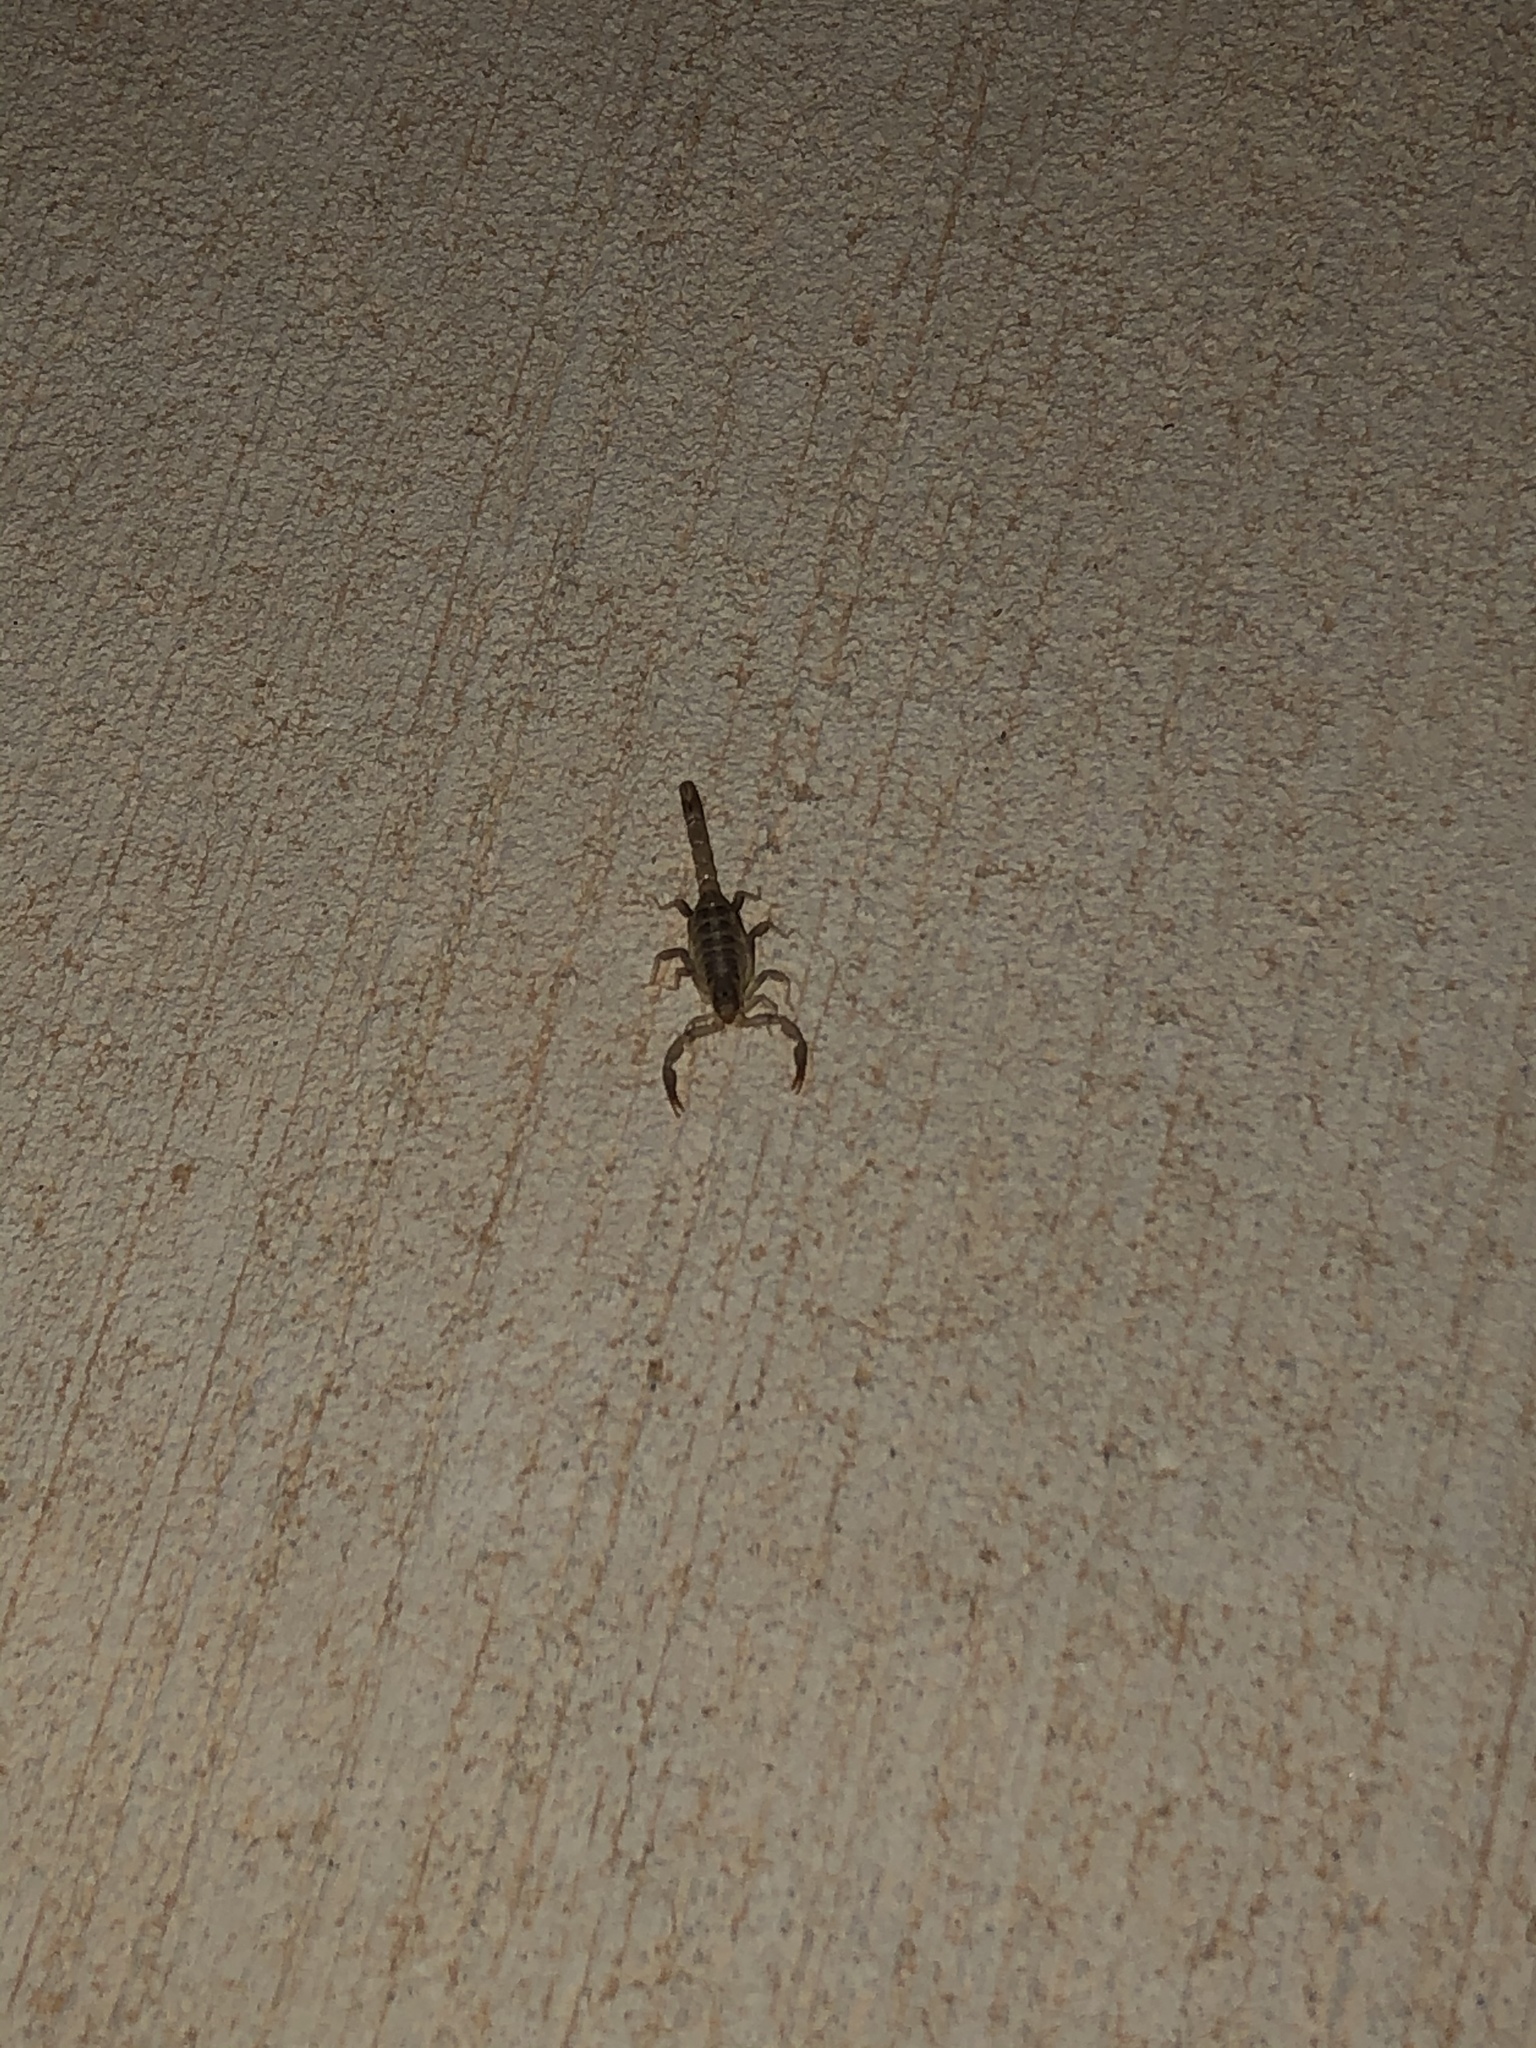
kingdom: Animalia
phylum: Arthropoda
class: Arachnida
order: Scorpiones
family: Buthidae
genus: Centruroides
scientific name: Centruroides vittatus
